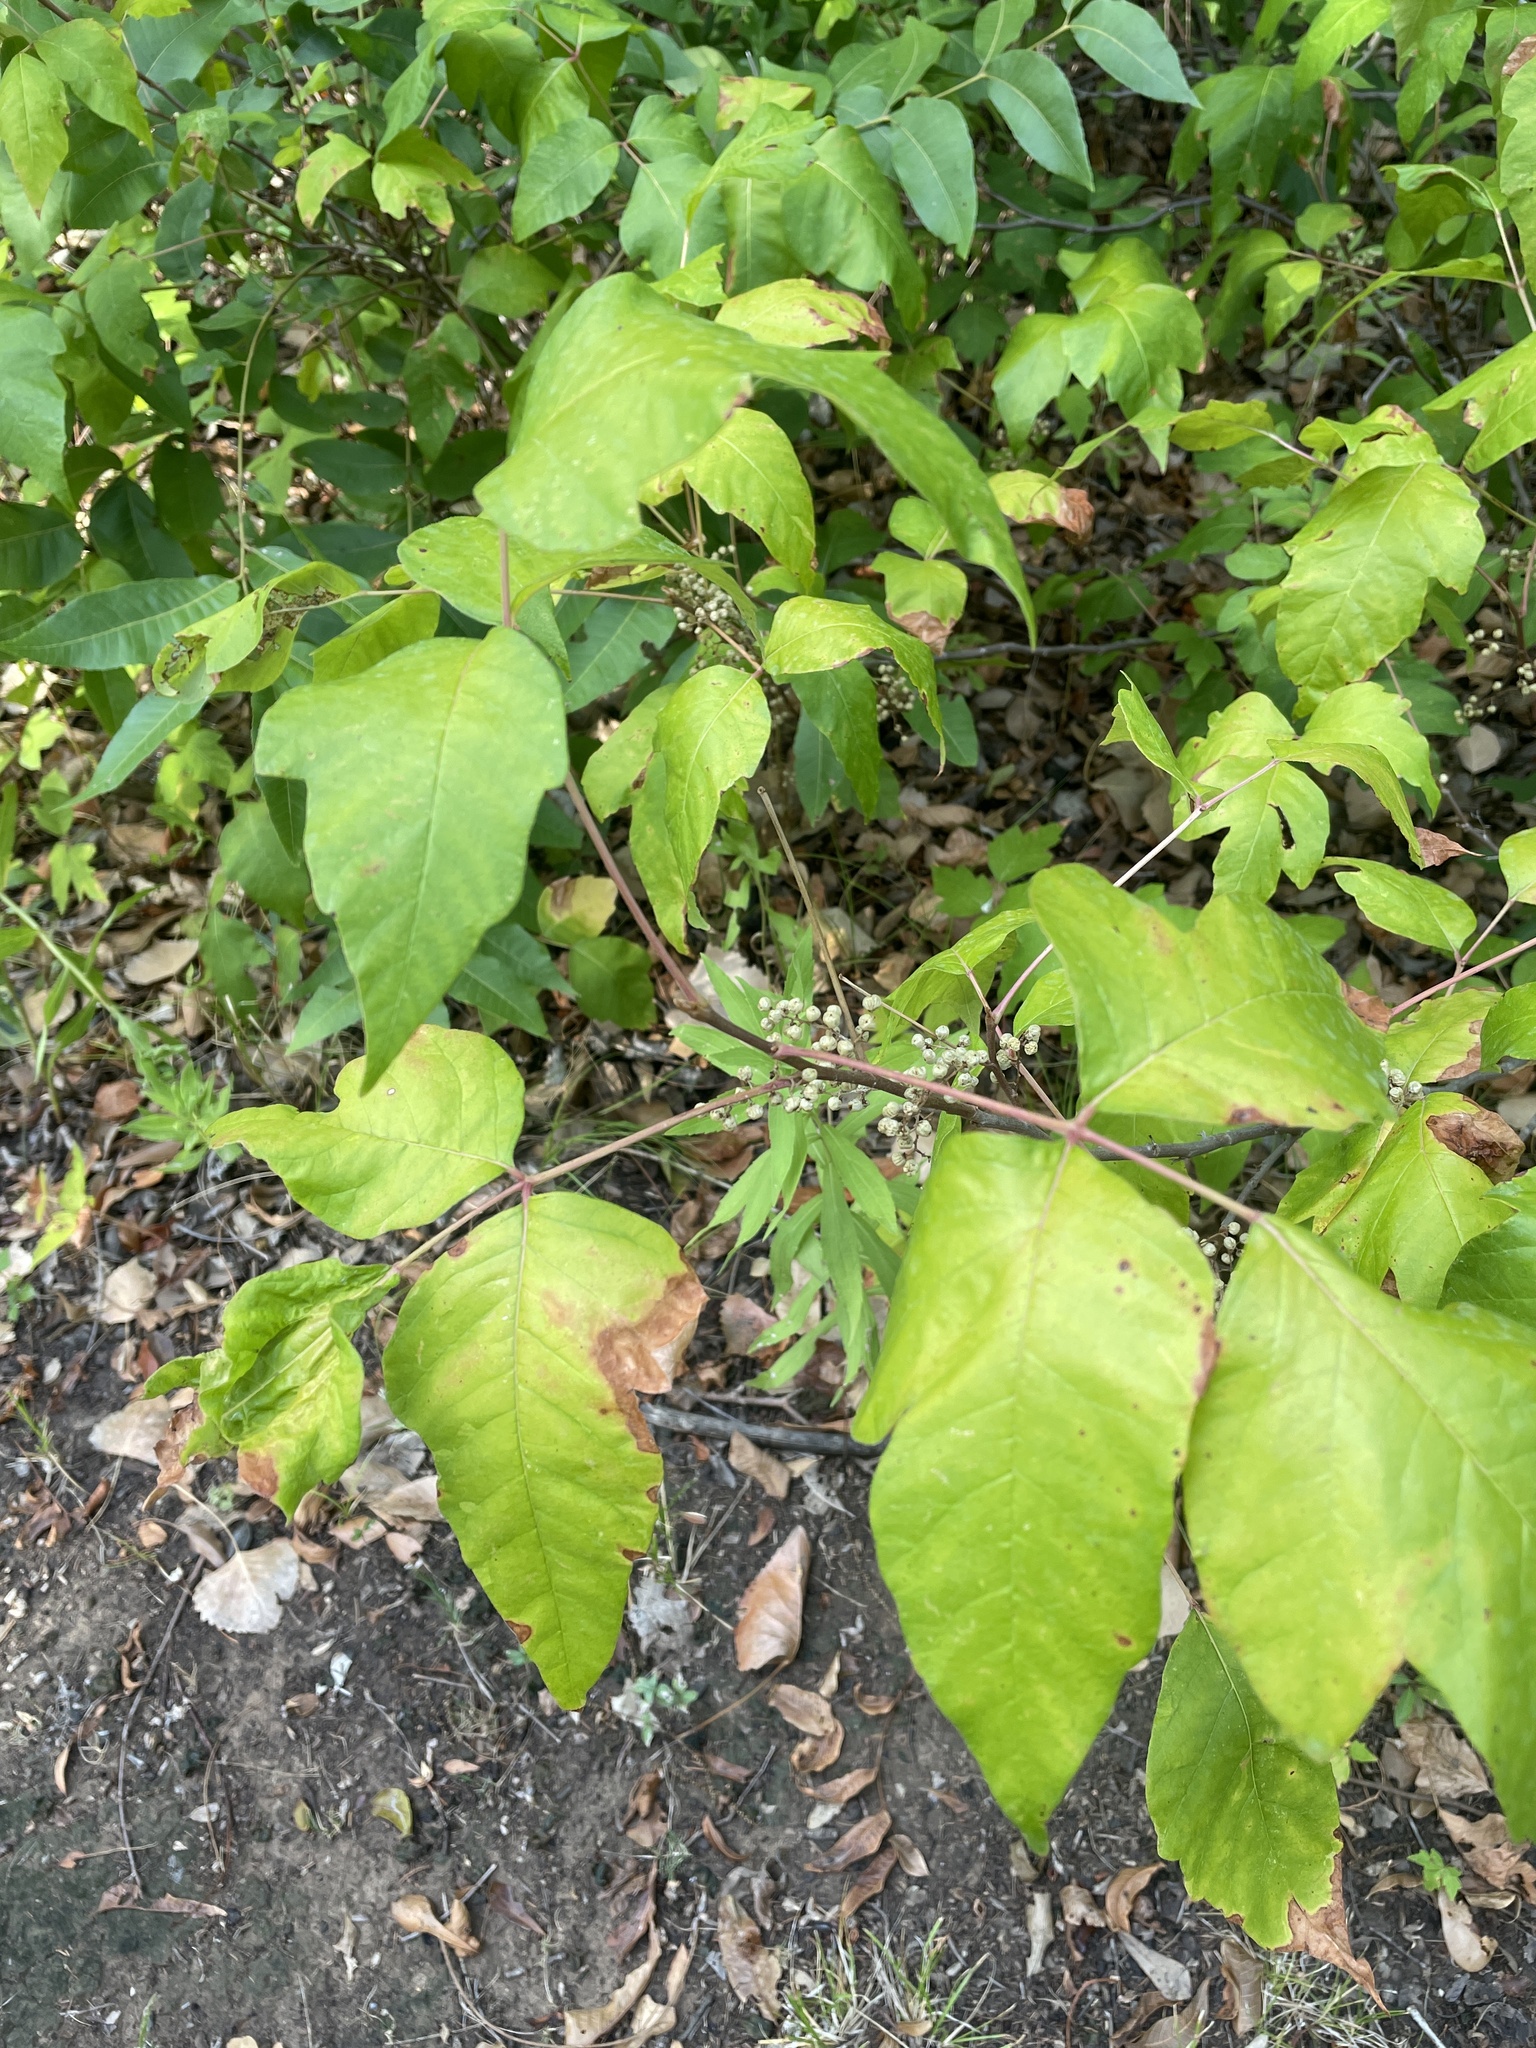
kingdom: Plantae
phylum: Tracheophyta
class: Magnoliopsida
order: Sapindales
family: Anacardiaceae
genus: Toxicodendron
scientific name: Toxicodendron radicans
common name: Poison ivy
